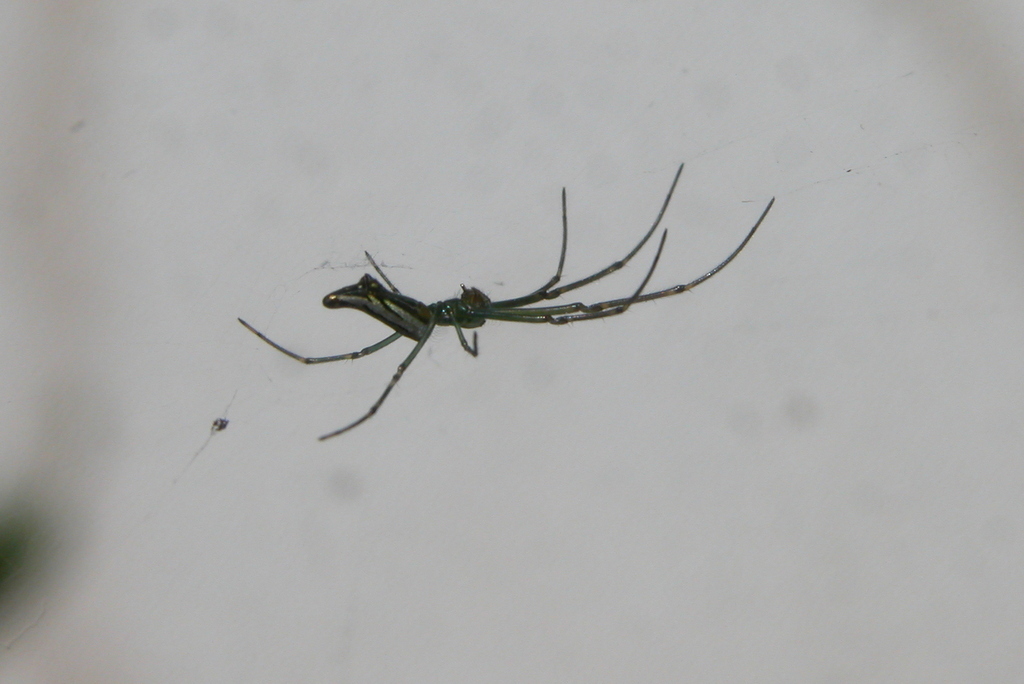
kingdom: Animalia
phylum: Arthropoda
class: Arachnida
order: Araneae
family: Tetragnathidae
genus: Leucauge
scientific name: Leucauge decorata
